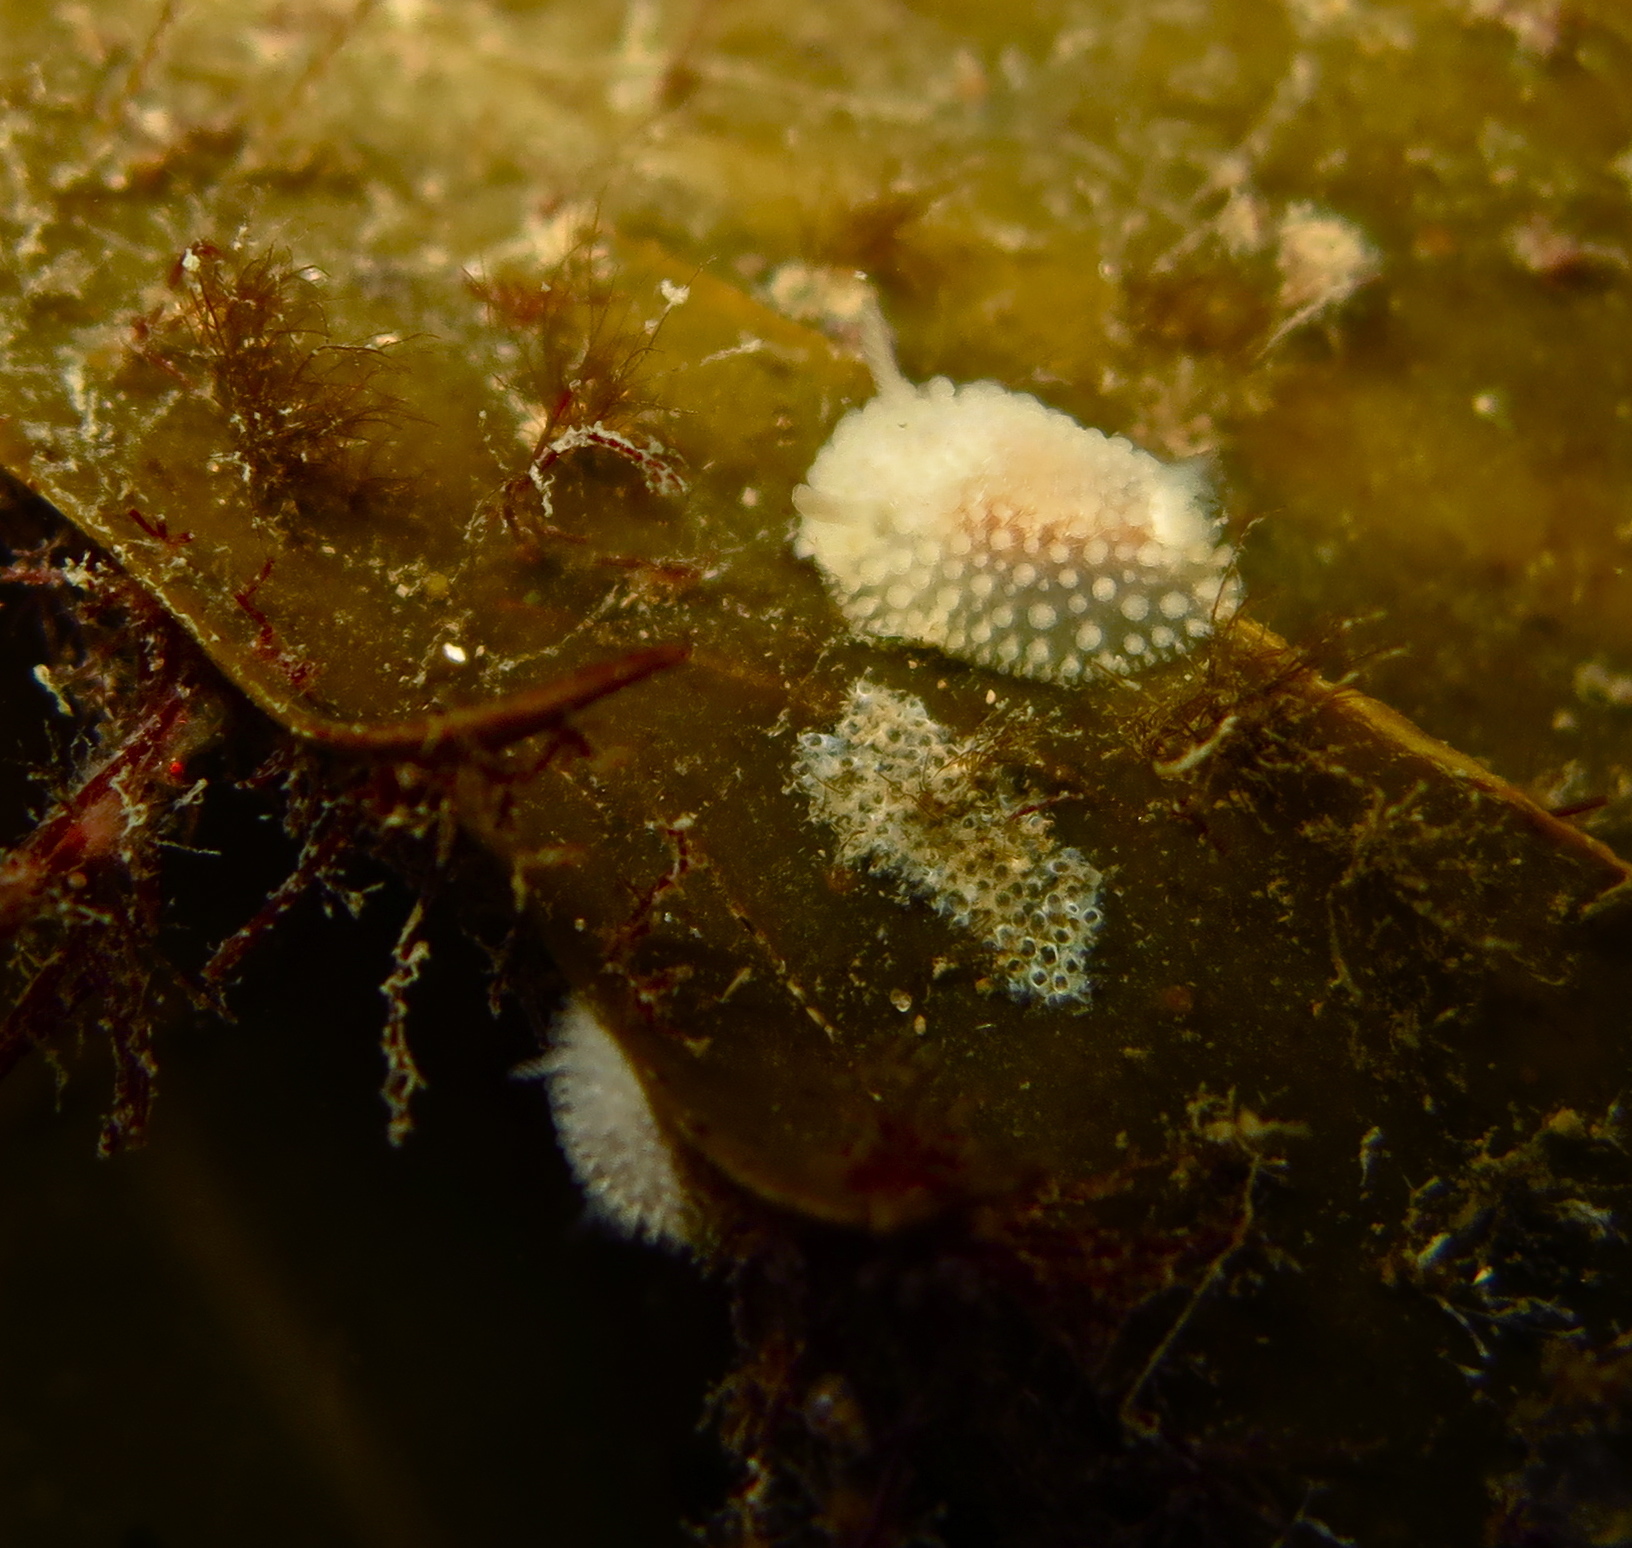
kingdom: Animalia
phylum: Mollusca
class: Gastropoda
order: Nudibranchia
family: Onchidorididae
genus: Onchidoris
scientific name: Onchidoris muricata
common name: Rough doris
